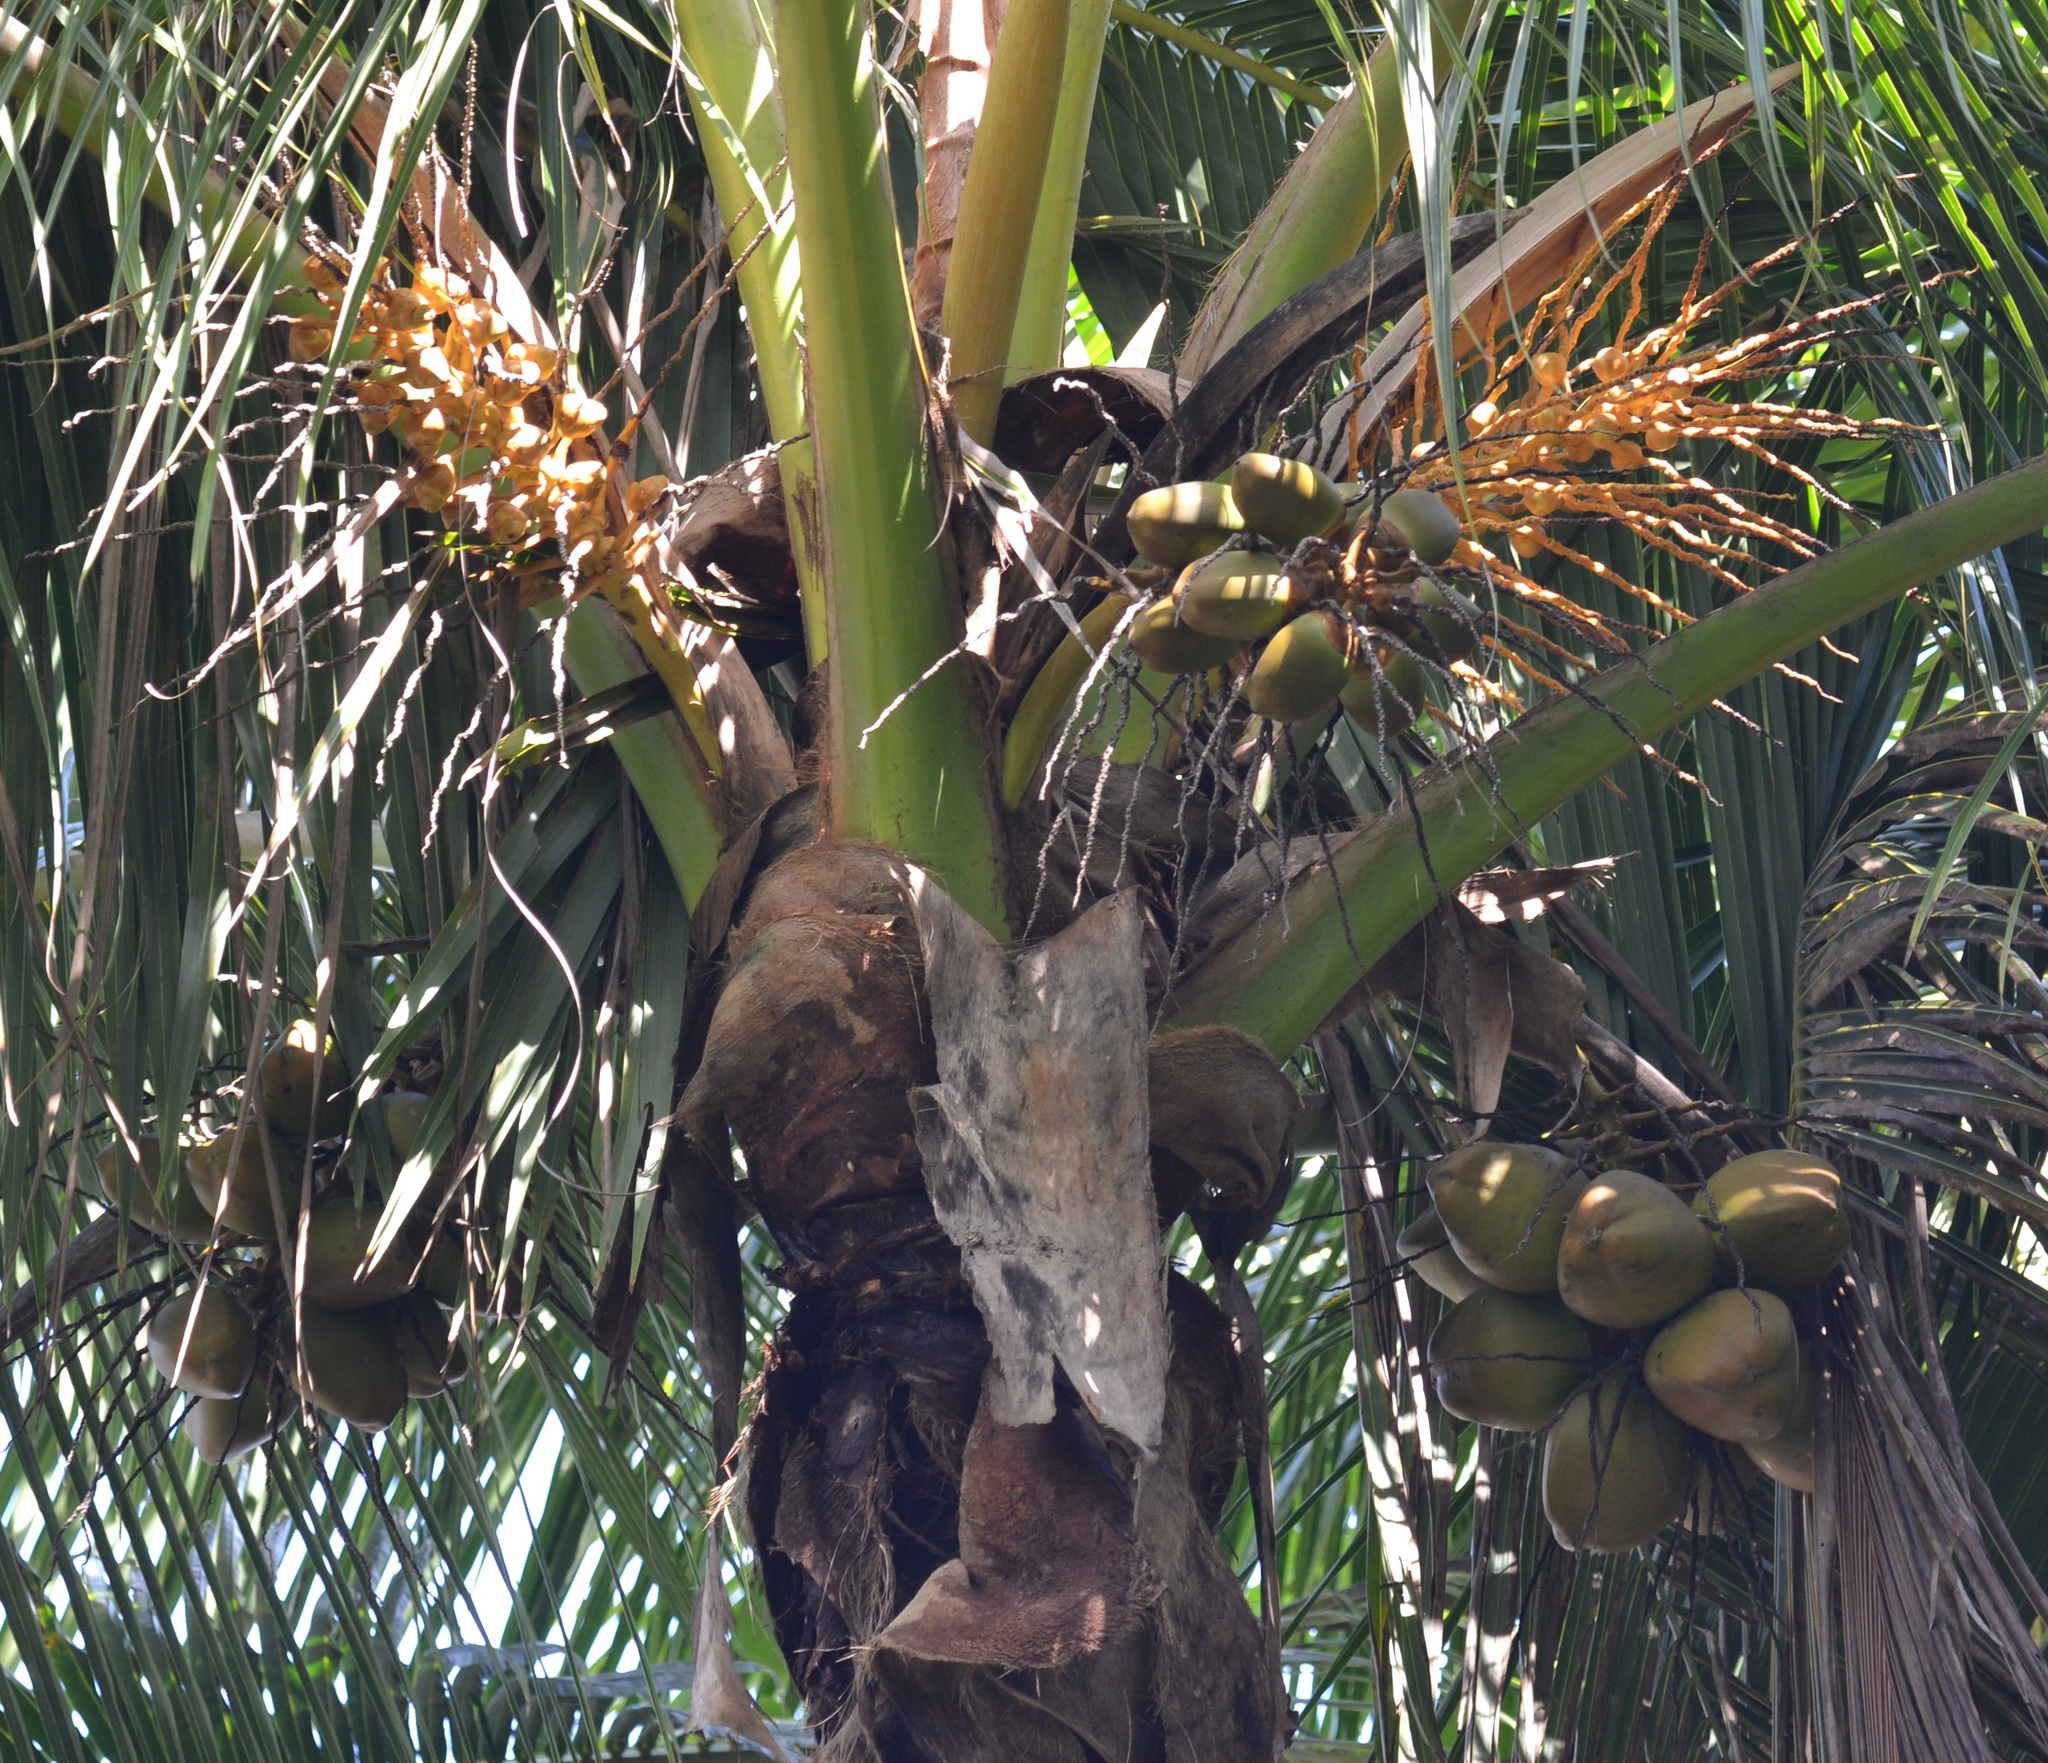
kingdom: Plantae
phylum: Tracheophyta
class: Liliopsida
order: Arecales
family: Arecaceae
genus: Cocos
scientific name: Cocos nucifera
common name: Coconut palm
